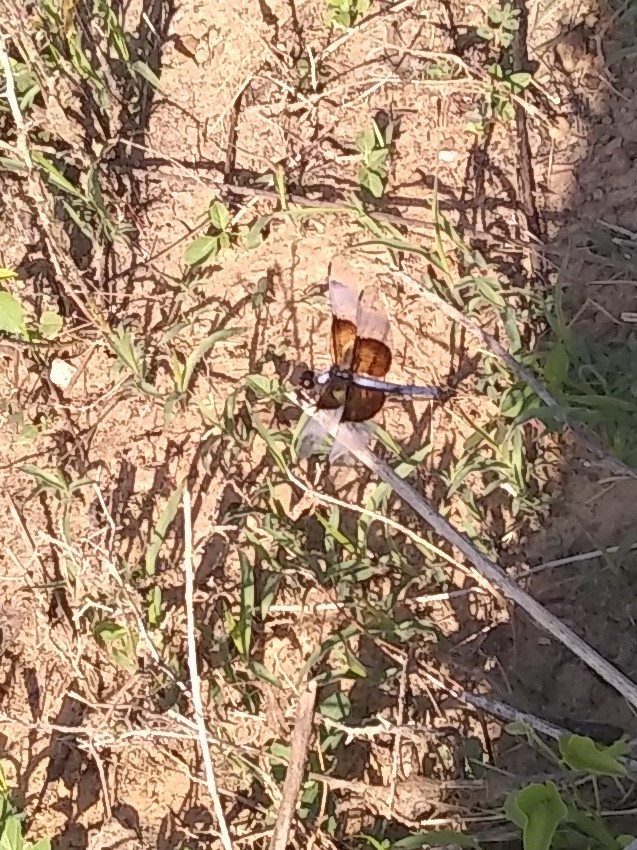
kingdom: Animalia
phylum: Arthropoda
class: Insecta
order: Odonata
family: Libellulidae
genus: Libellula
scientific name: Libellula luctuosa
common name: Widow skimmer
